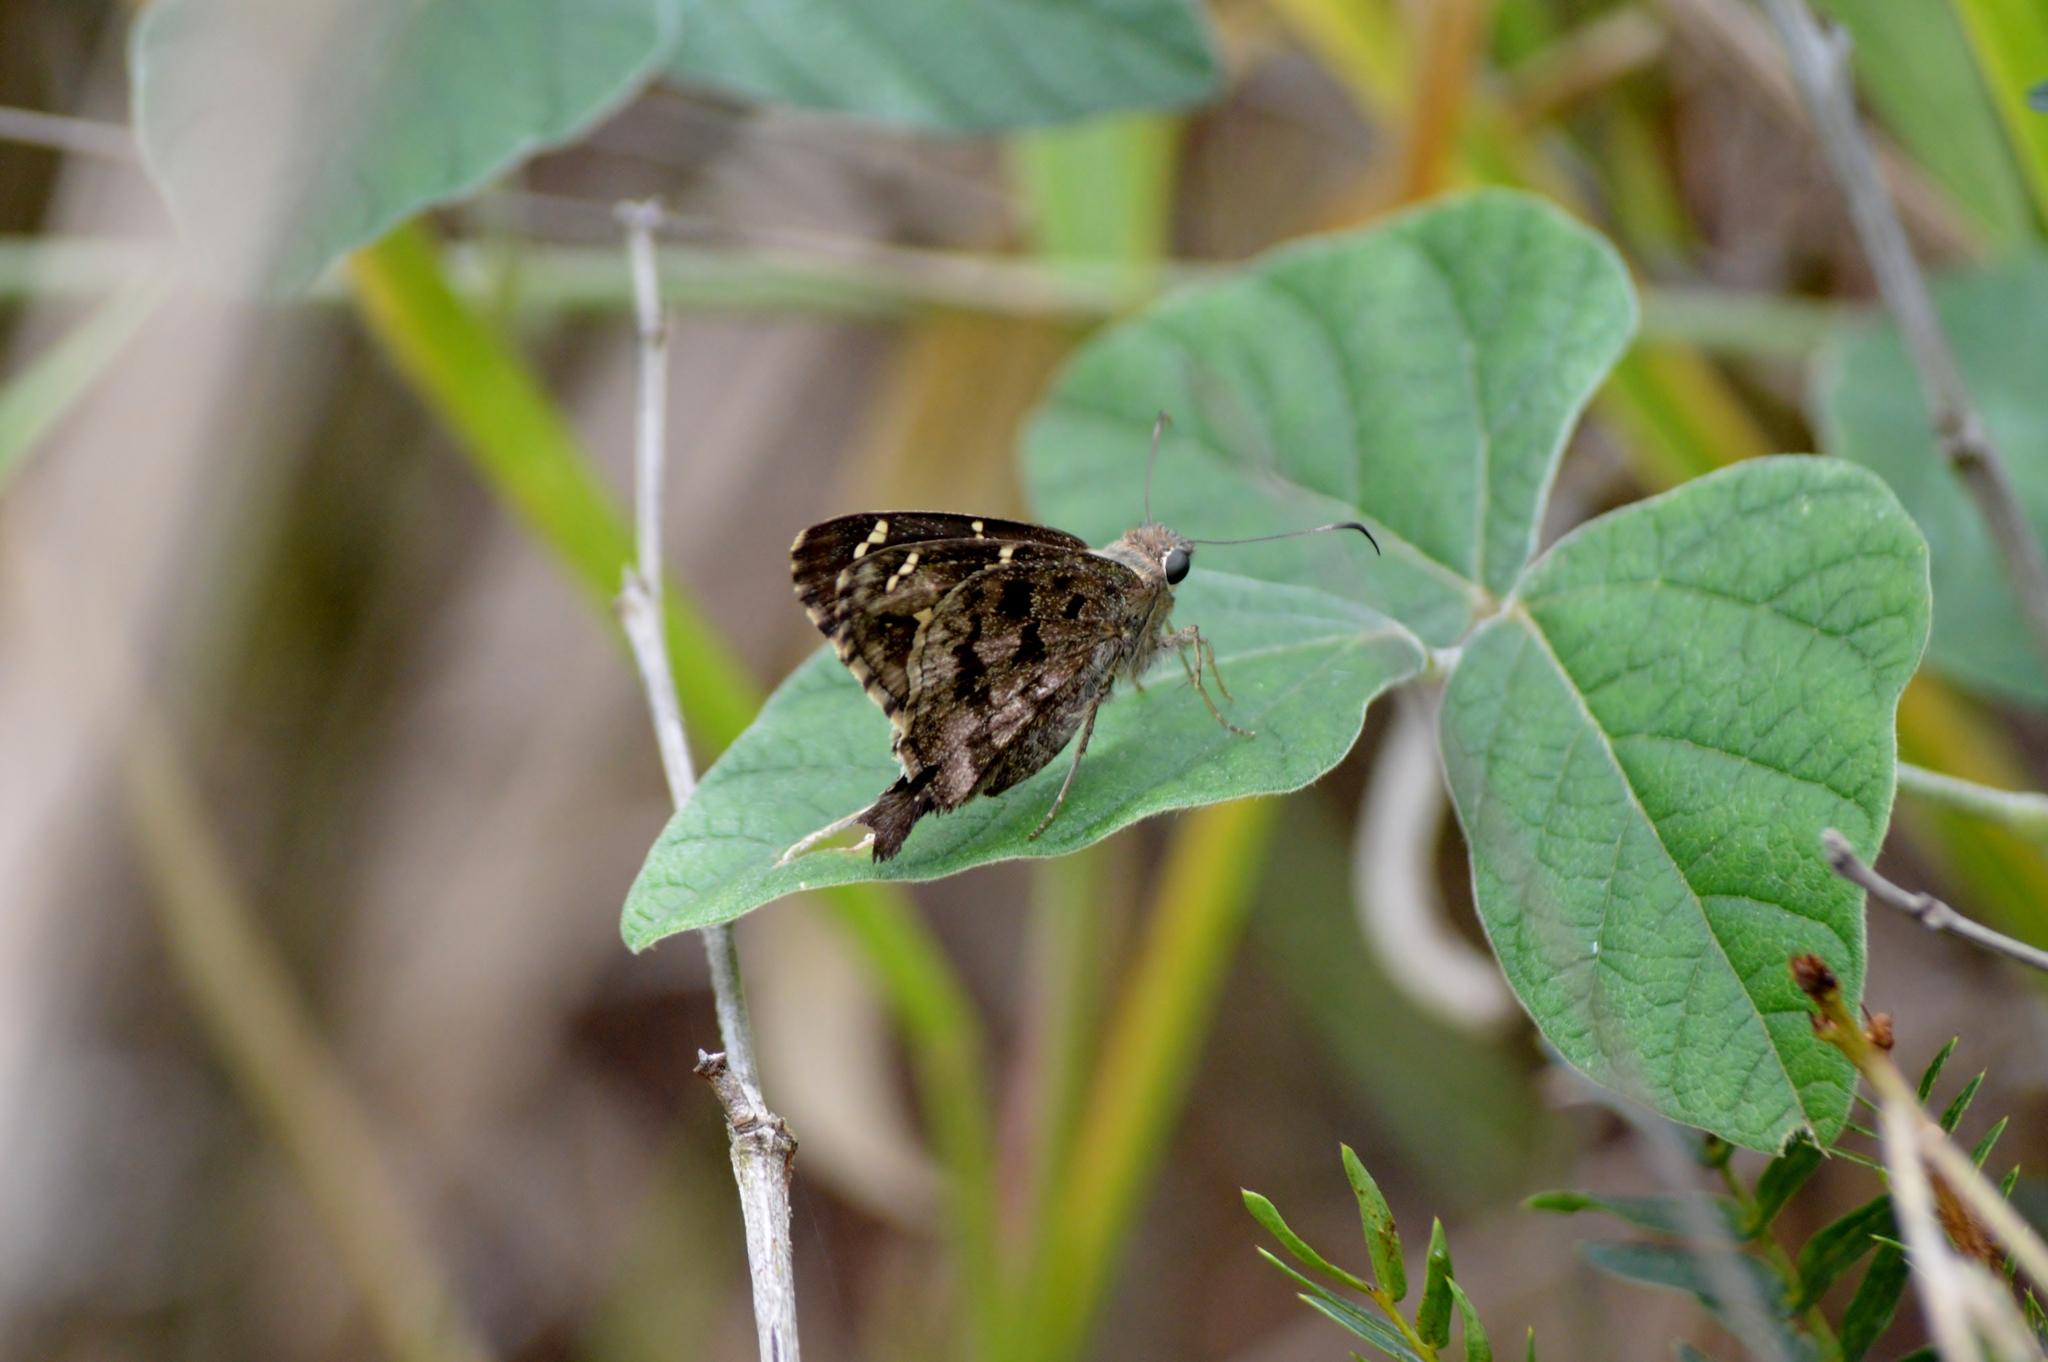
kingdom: Animalia
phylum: Arthropoda
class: Insecta
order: Lepidoptera
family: Hesperiidae
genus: Thorybes
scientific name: Thorybes
